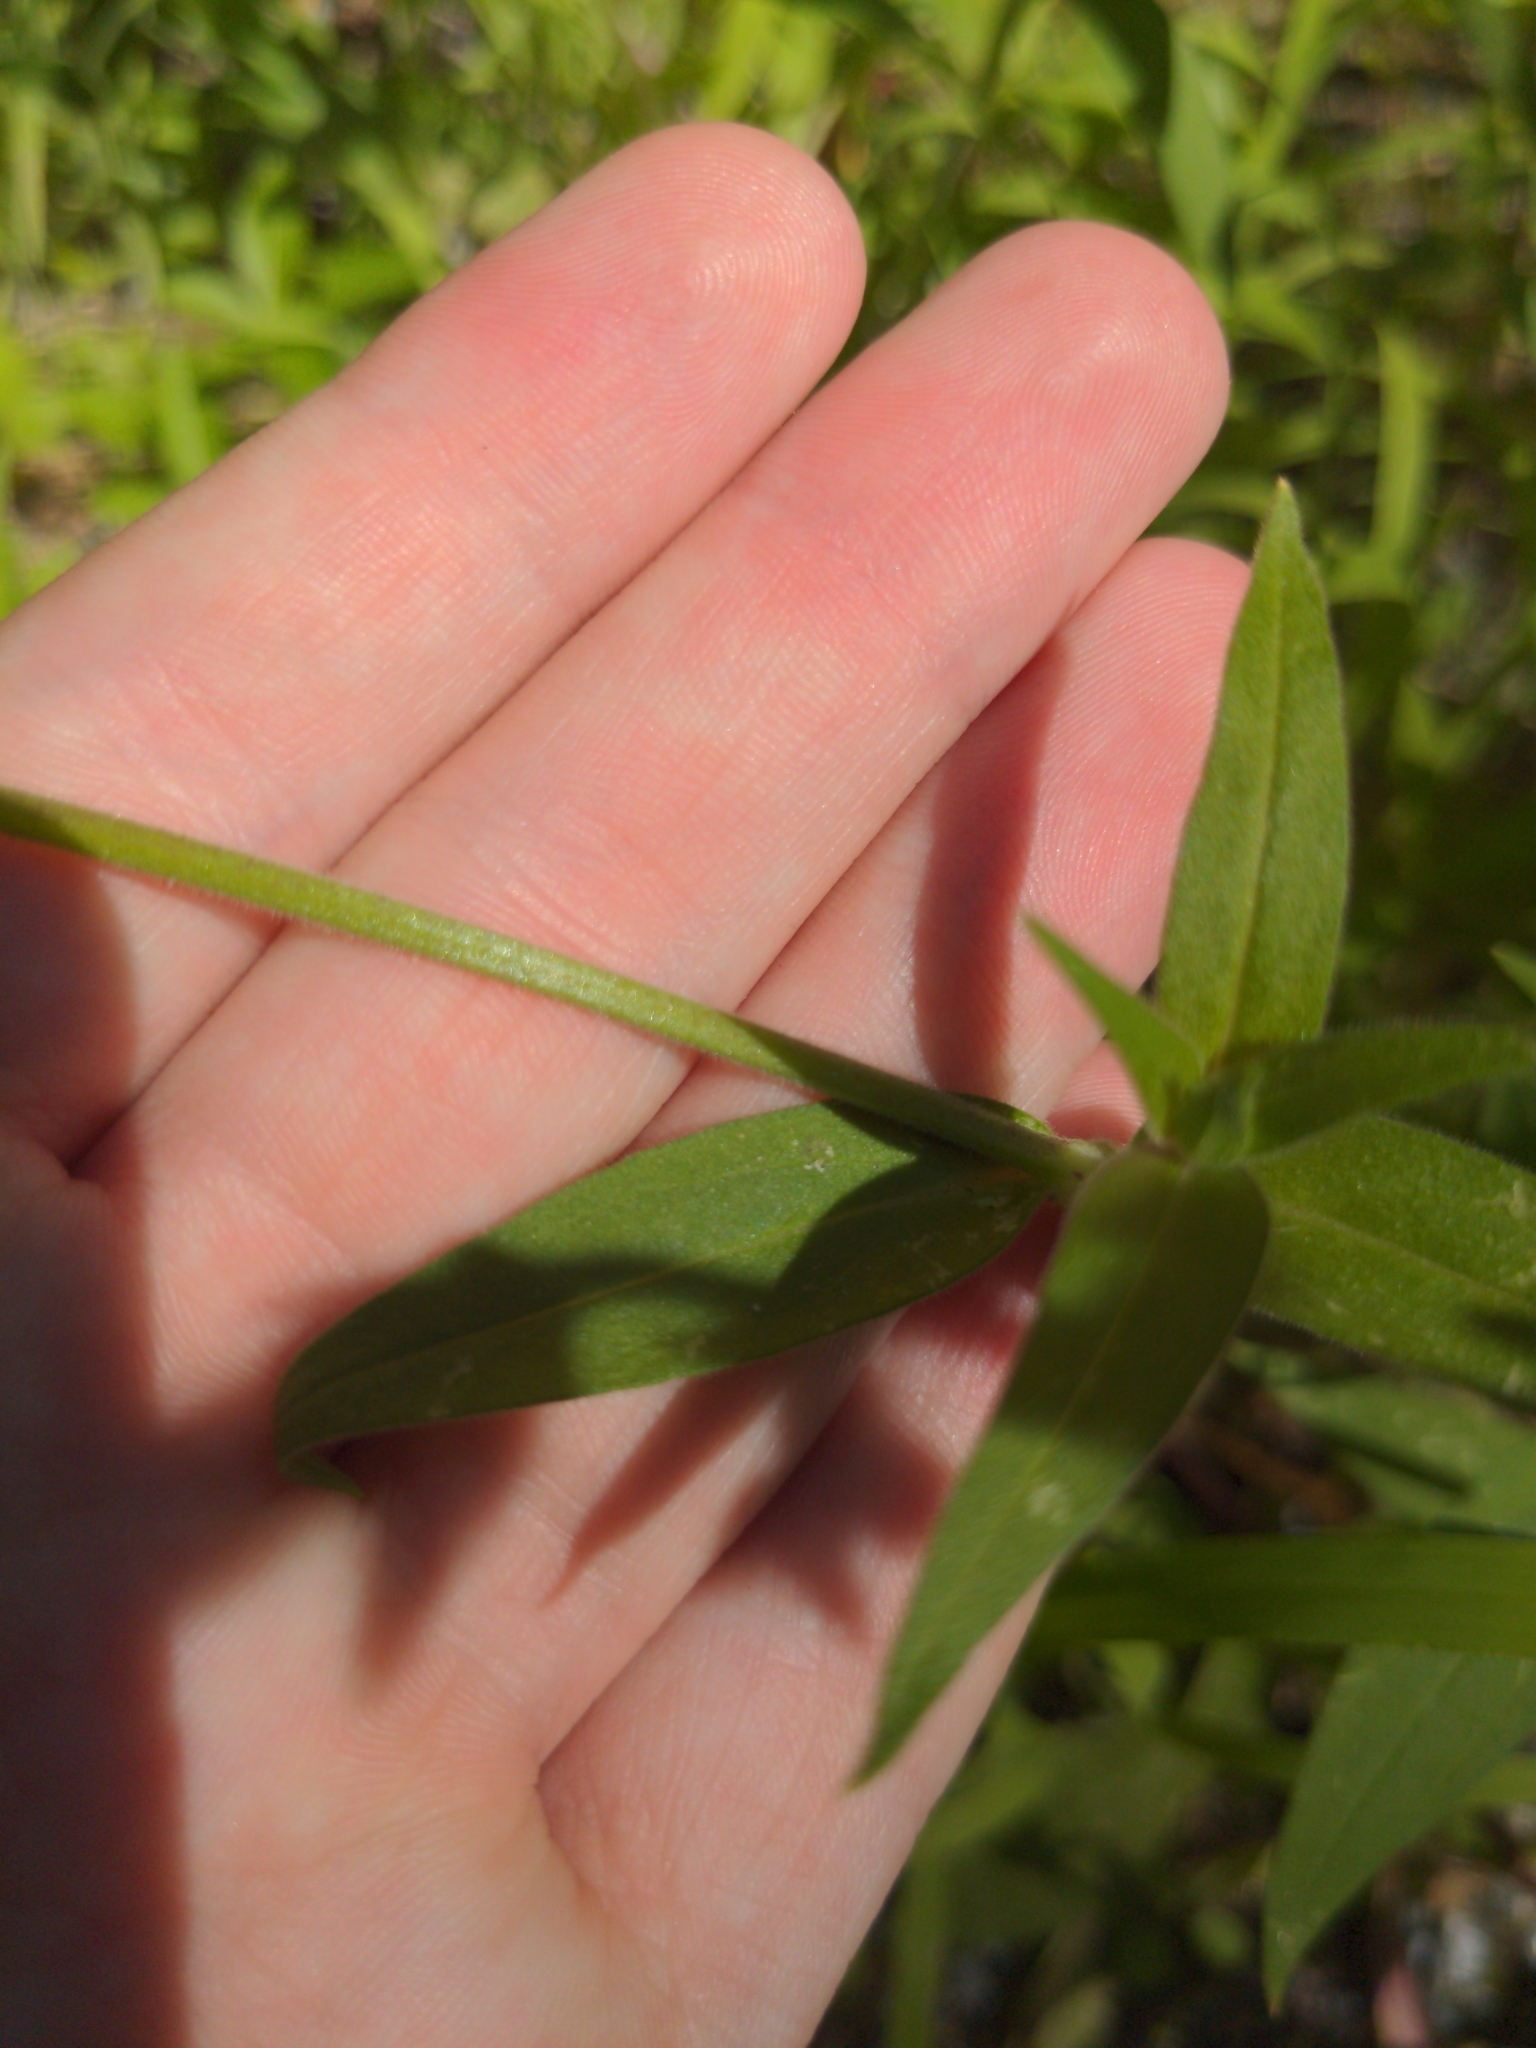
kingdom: Plantae
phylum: Tracheophyta
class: Magnoliopsida
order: Caryophyllales
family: Caryophyllaceae
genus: Silene
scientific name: Silene latifolia
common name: White campion
